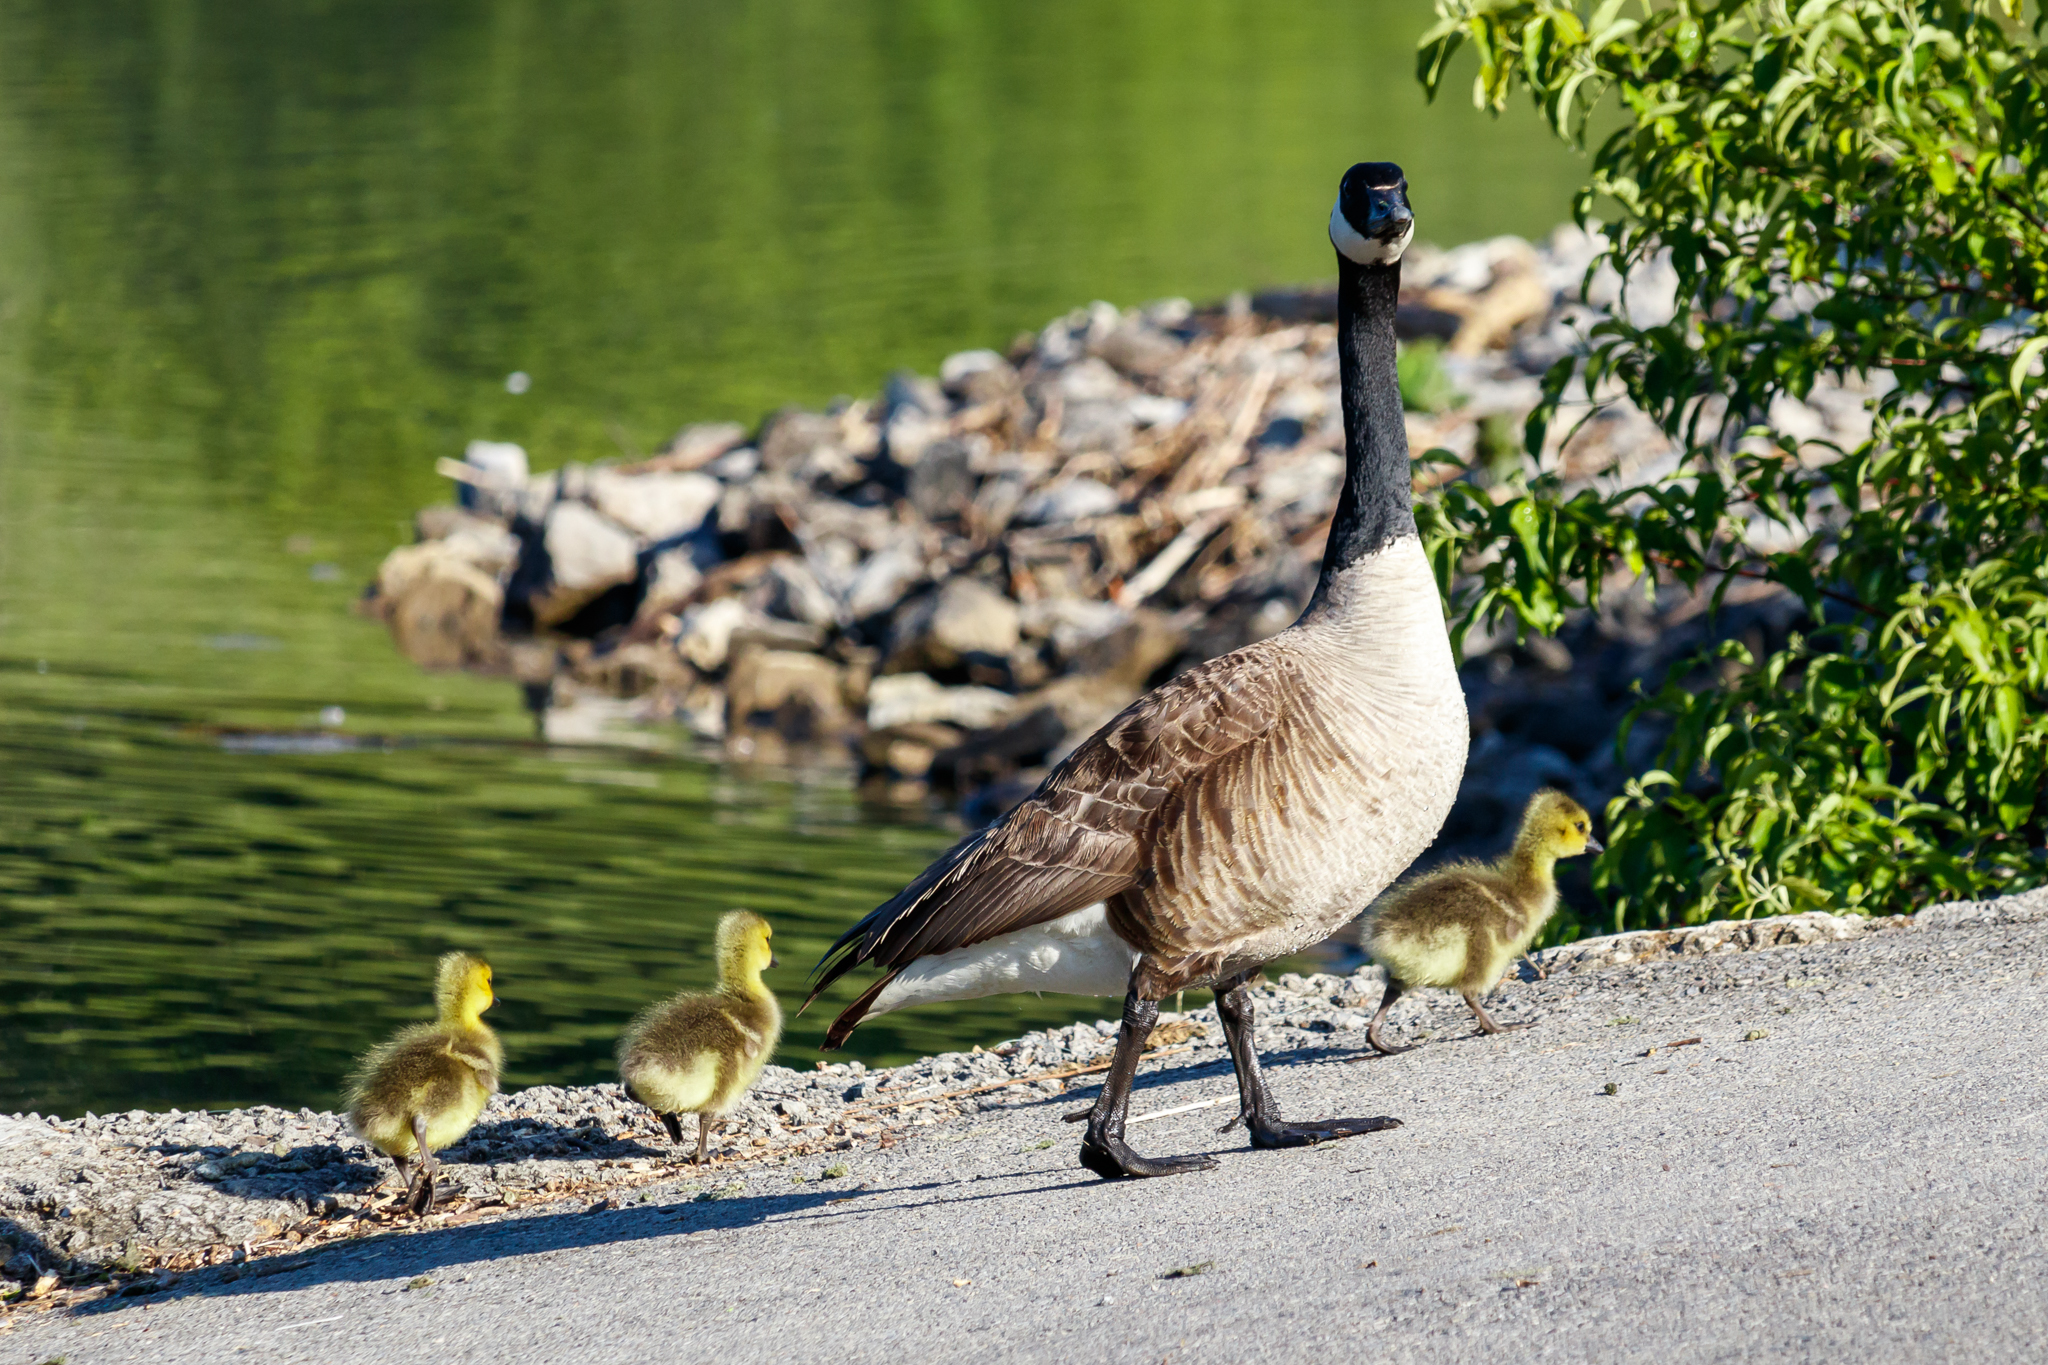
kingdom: Animalia
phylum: Chordata
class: Aves
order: Anseriformes
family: Anatidae
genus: Branta
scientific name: Branta canadensis
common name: Canada goose
